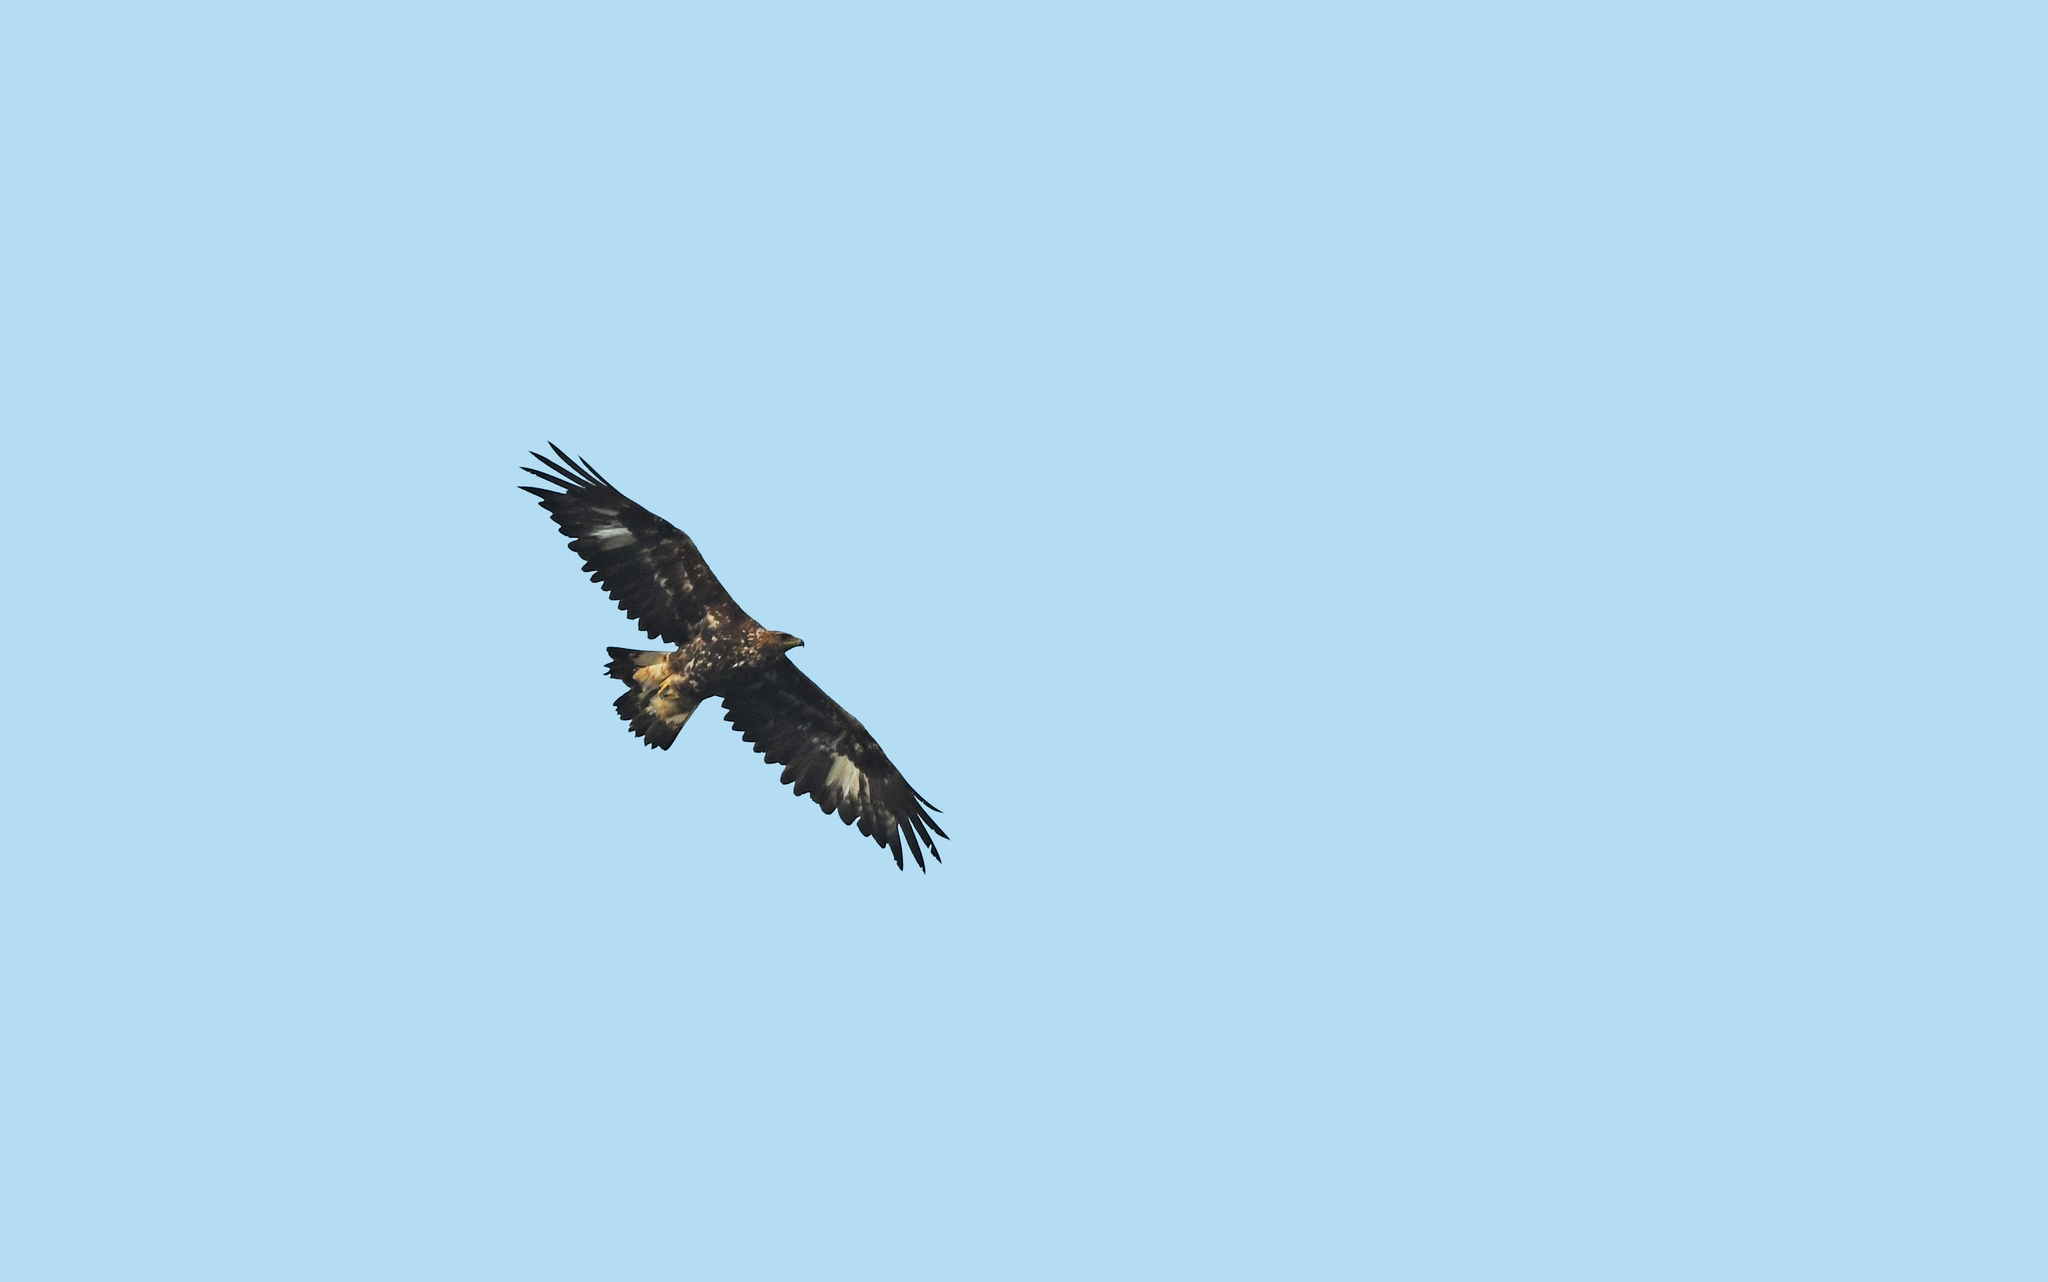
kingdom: Animalia
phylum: Chordata
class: Aves
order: Accipitriformes
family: Accipitridae
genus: Aquila
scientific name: Aquila chrysaetos
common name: Golden eagle
